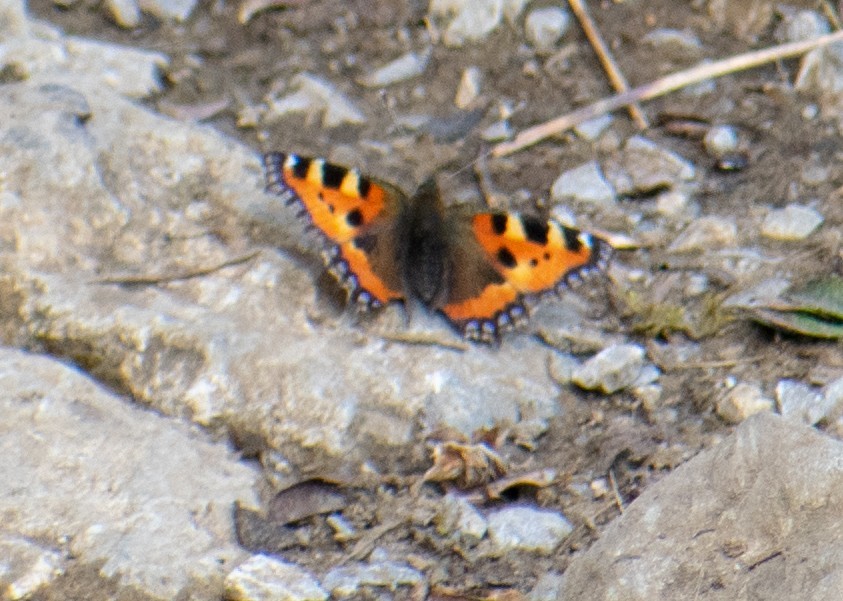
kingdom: Animalia
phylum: Arthropoda
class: Insecta
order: Lepidoptera
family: Nymphalidae
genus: Aglais
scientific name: Aglais urticae
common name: Small tortoiseshell
